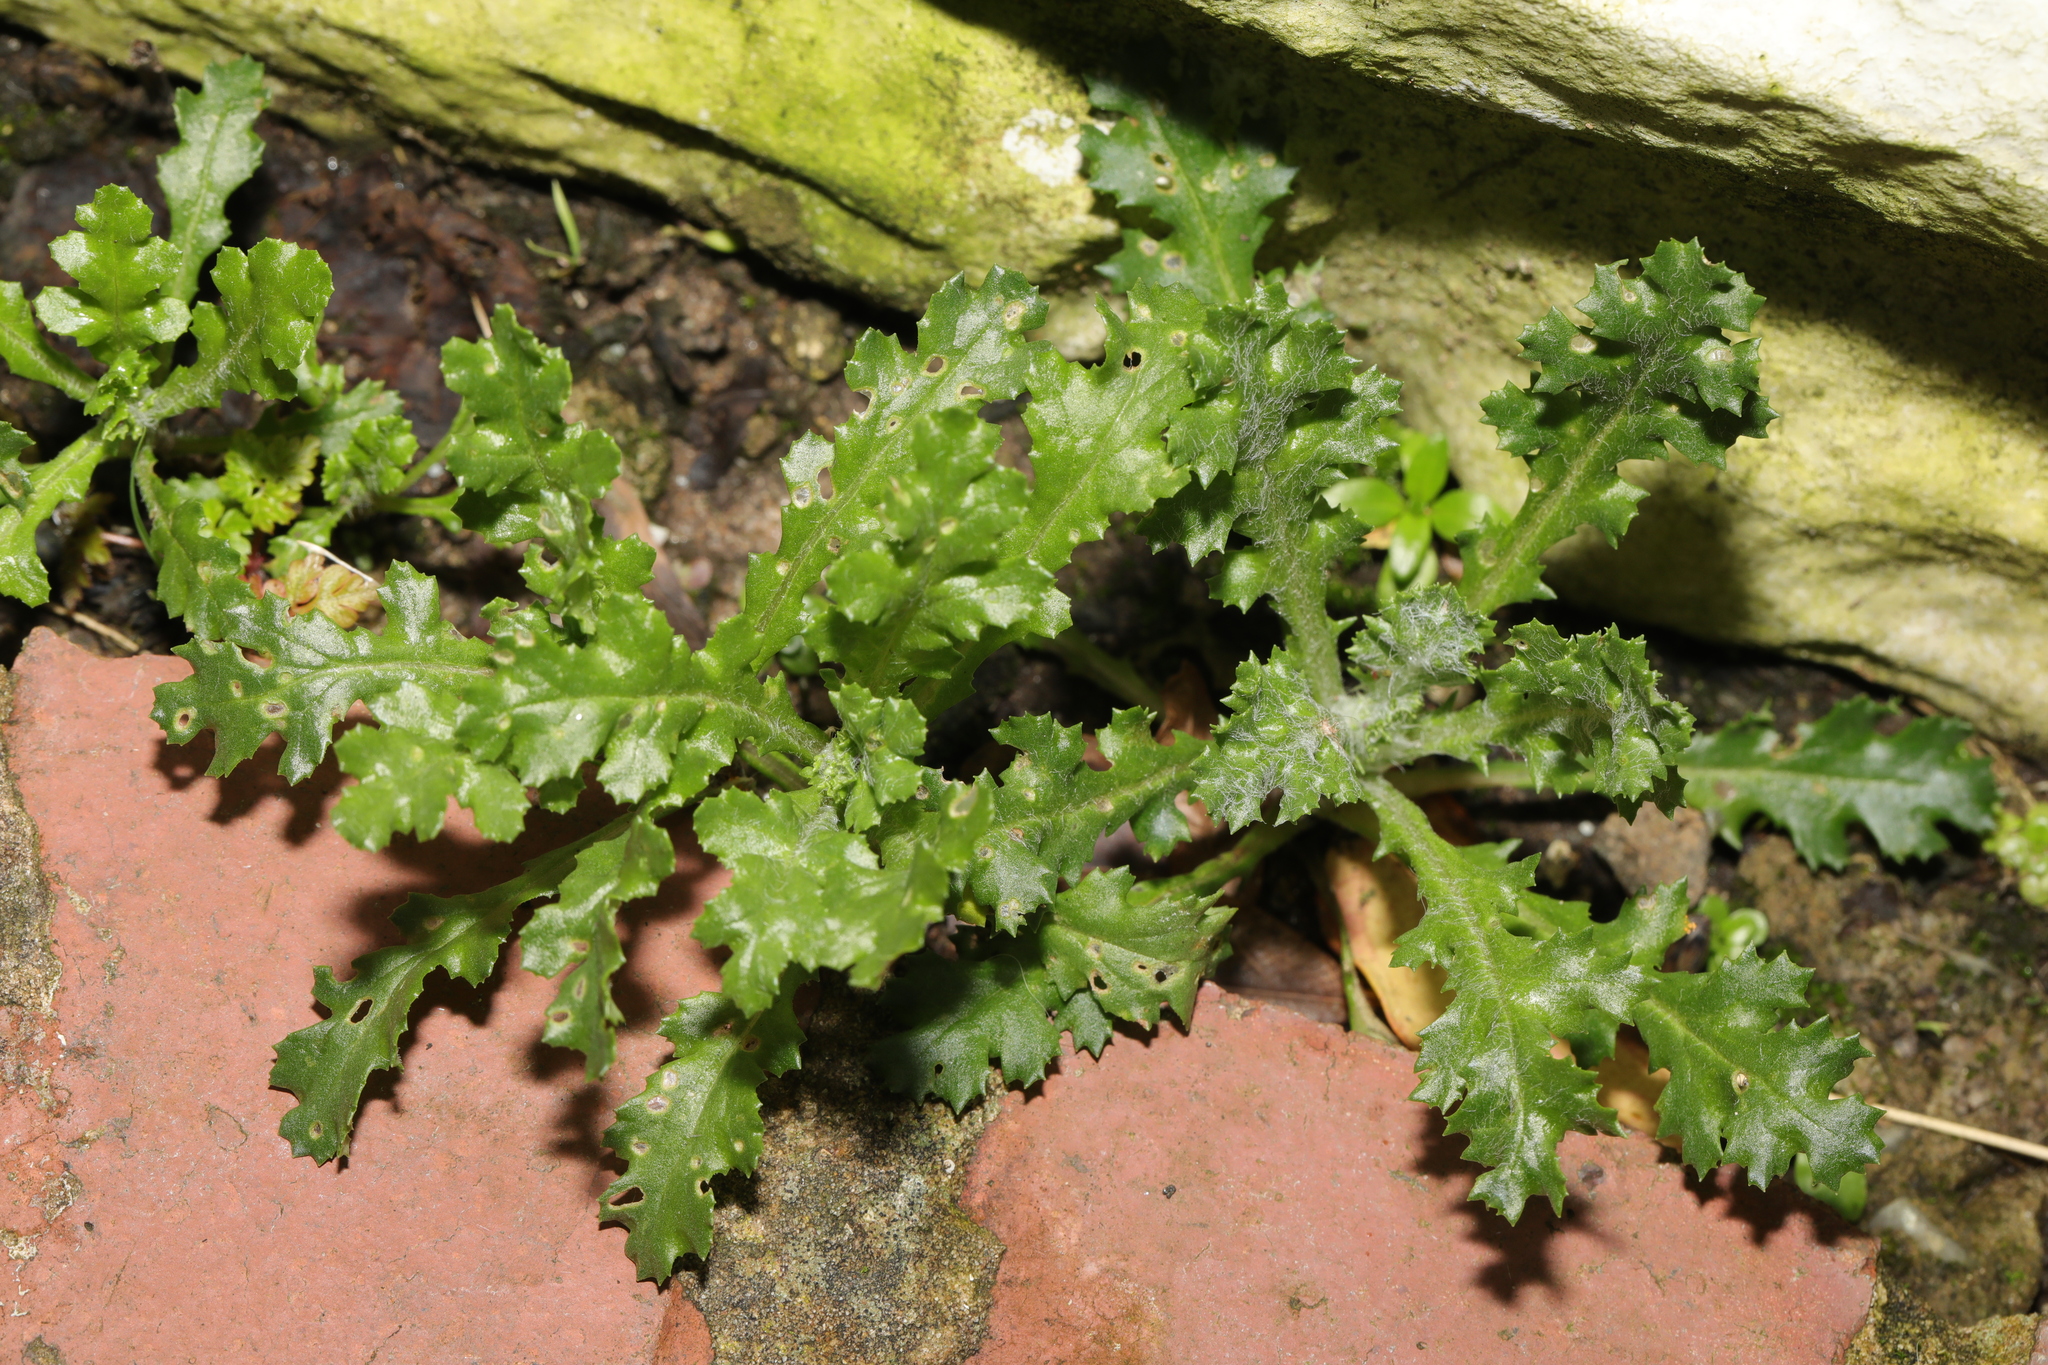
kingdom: Plantae
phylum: Tracheophyta
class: Magnoliopsida
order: Asterales
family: Asteraceae
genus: Senecio
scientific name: Senecio vulgaris
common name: Old-man-in-the-spring
